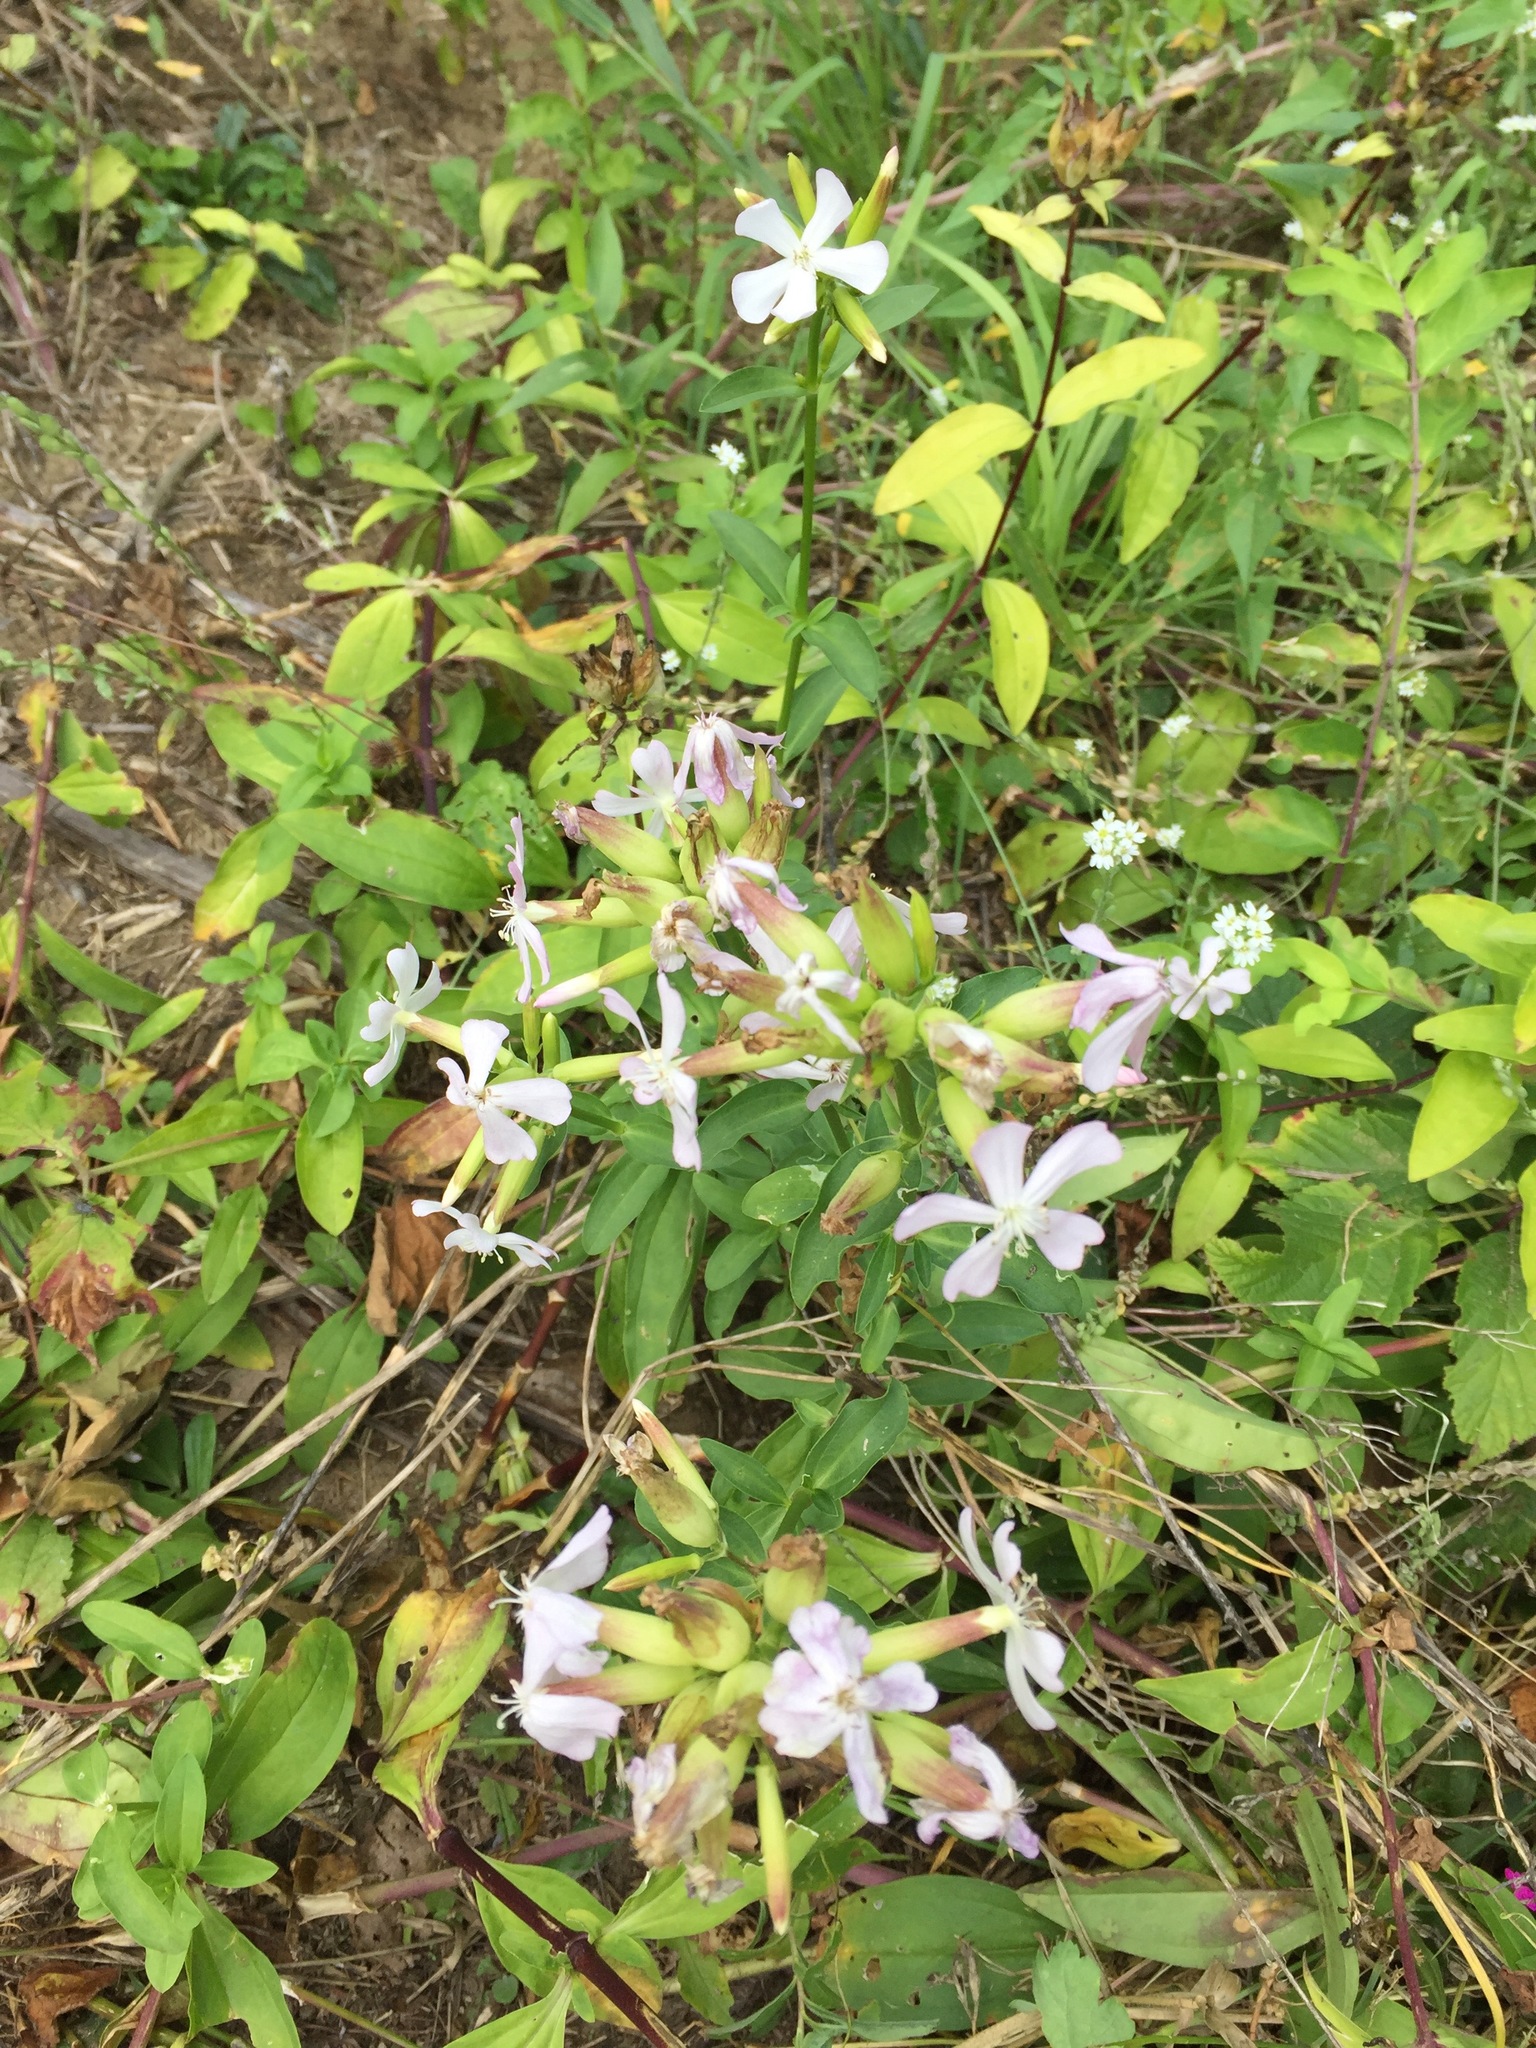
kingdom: Plantae
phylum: Tracheophyta
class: Magnoliopsida
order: Caryophyllales
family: Caryophyllaceae
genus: Saponaria
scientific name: Saponaria officinalis
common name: Soapwort
